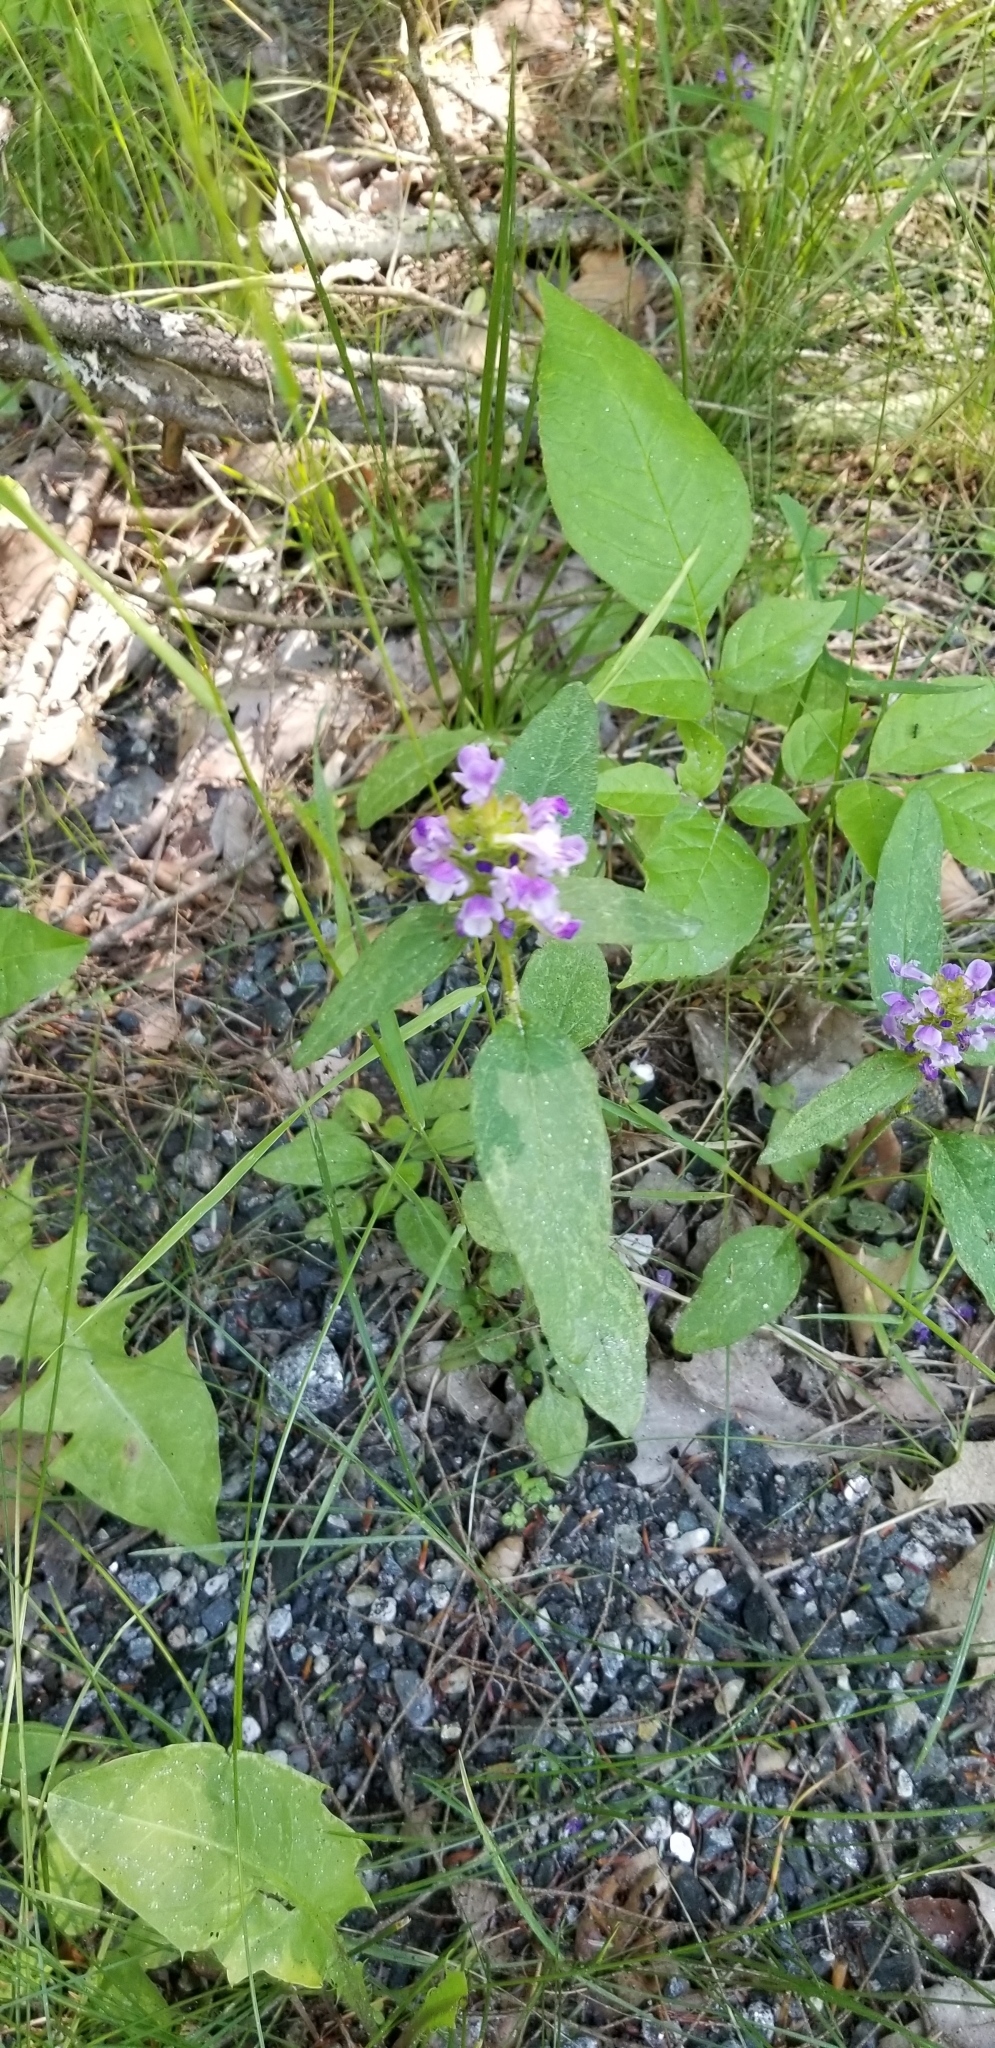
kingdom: Plantae
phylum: Tracheophyta
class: Magnoliopsida
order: Lamiales
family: Lamiaceae
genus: Prunella
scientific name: Prunella vulgaris
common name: Heal-all
